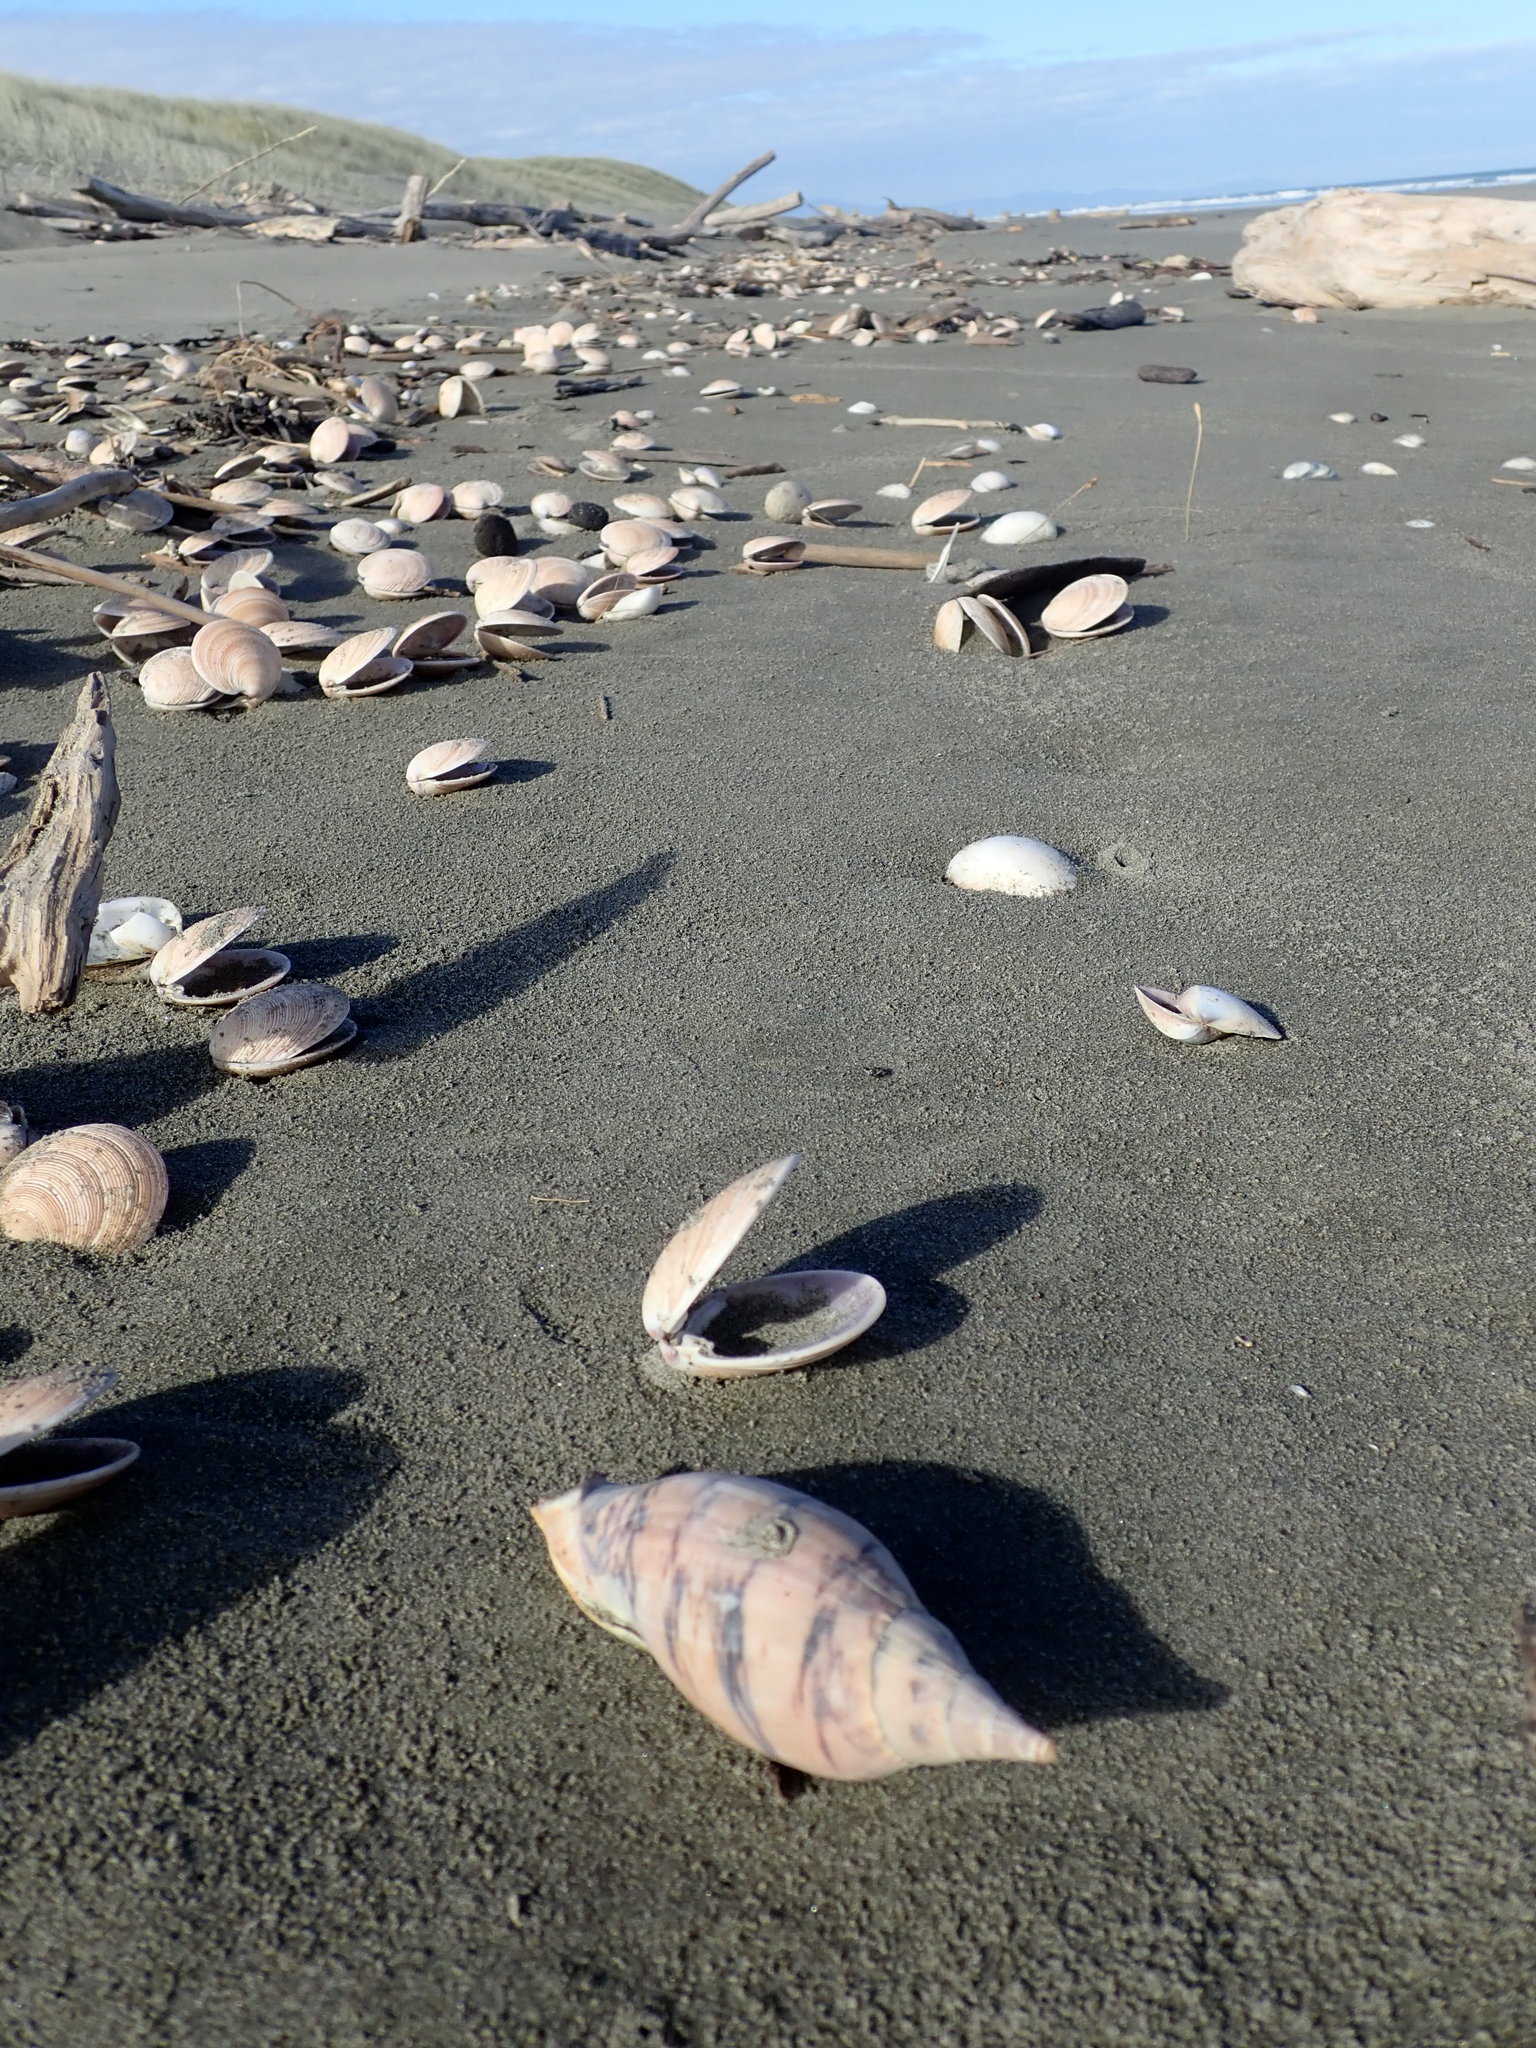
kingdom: Animalia
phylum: Mollusca
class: Gastropoda
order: Neogastropoda
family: Volutidae
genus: Alcithoe
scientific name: Alcithoe arabica
